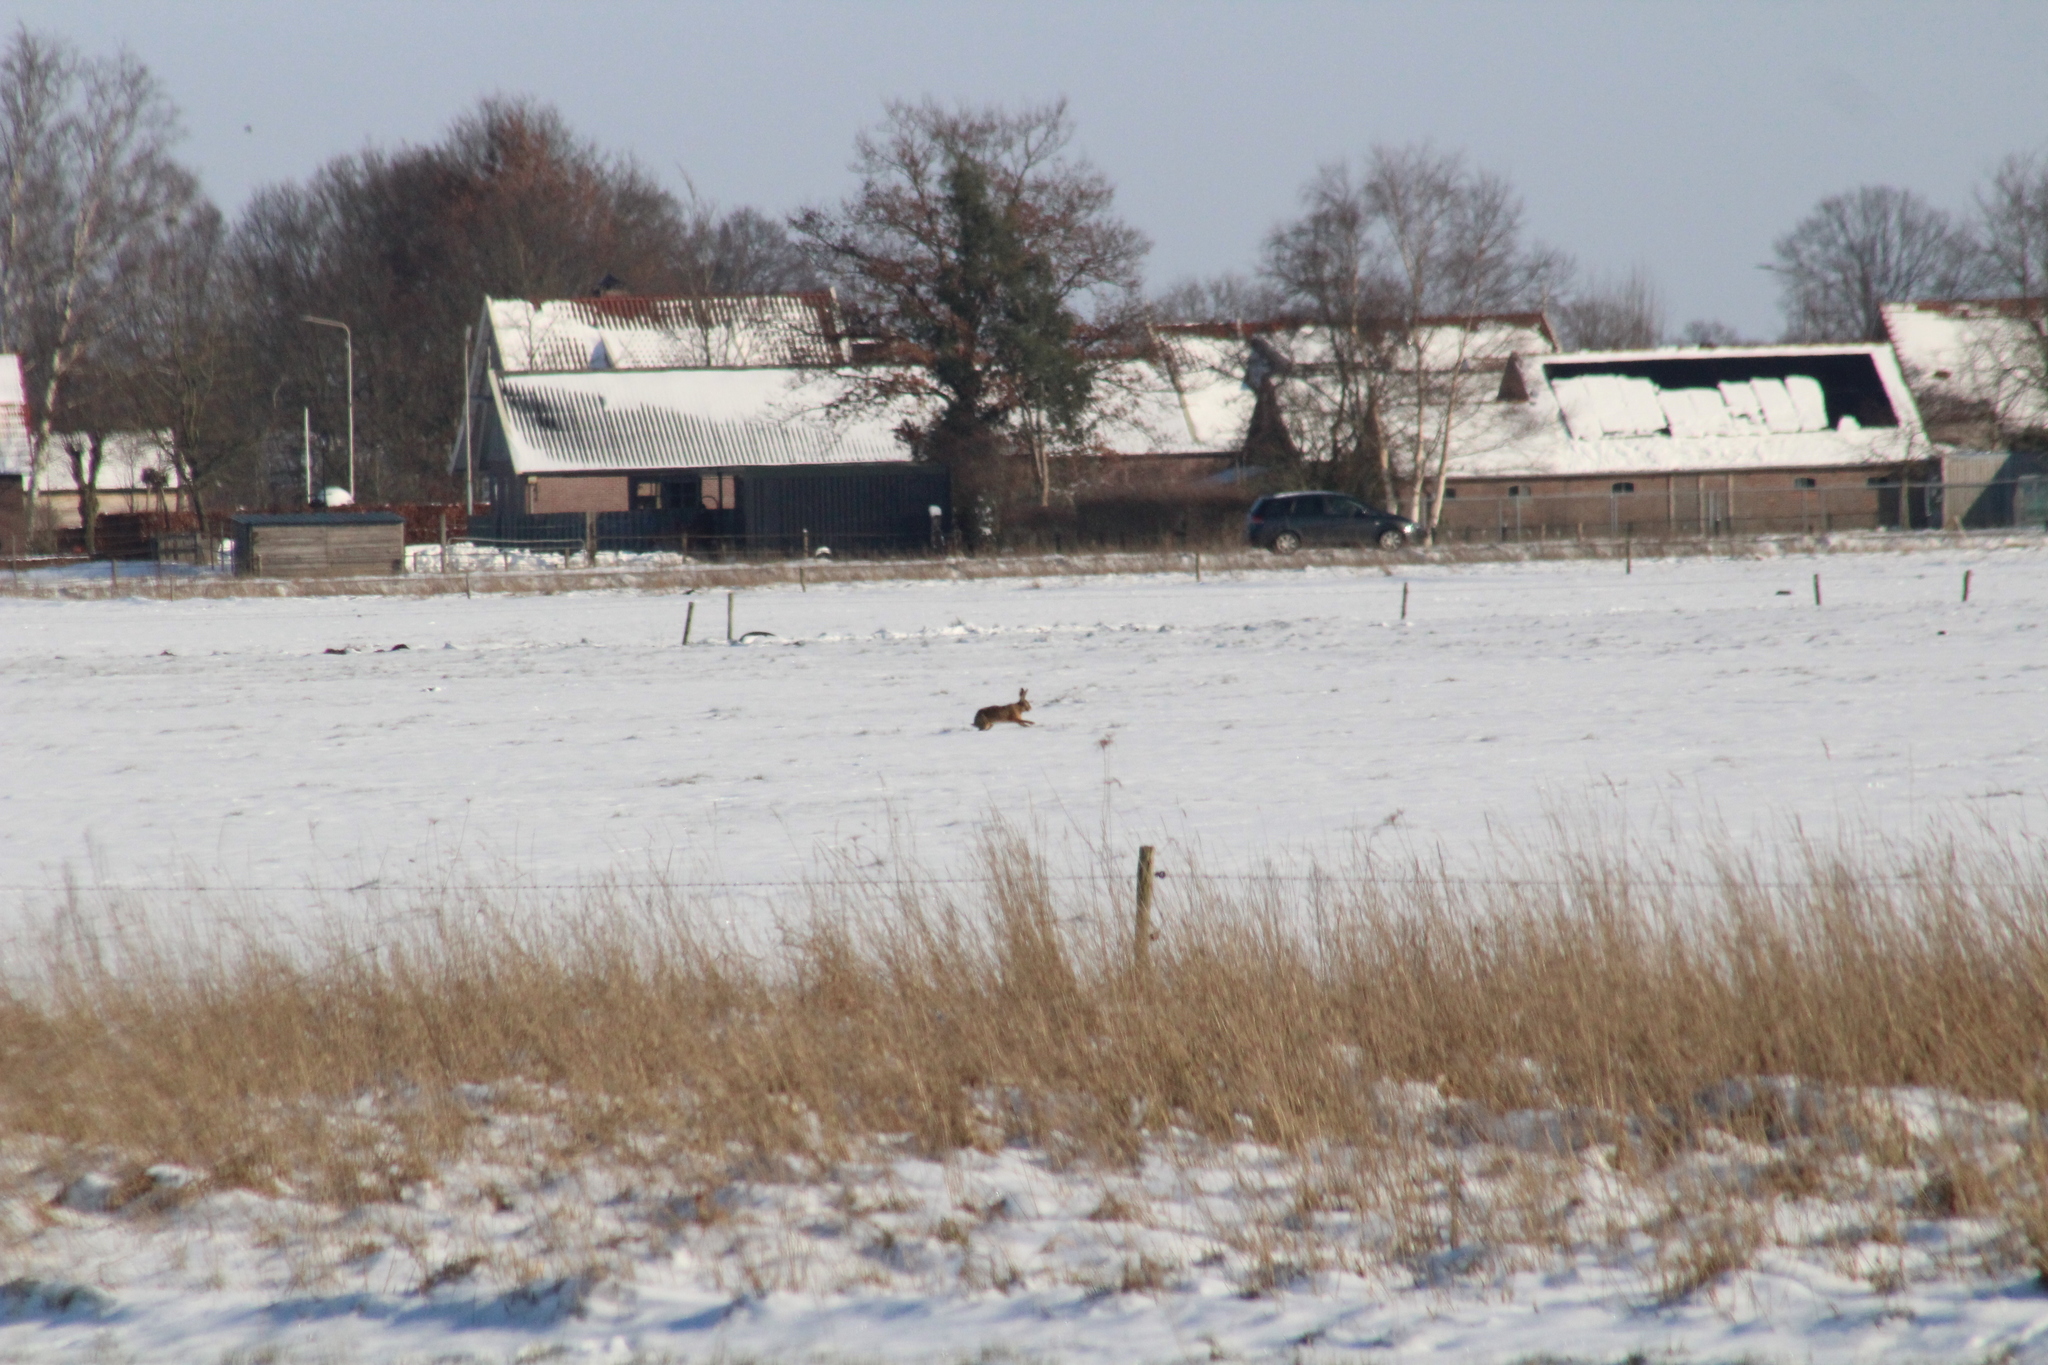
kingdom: Animalia
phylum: Chordata
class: Mammalia
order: Lagomorpha
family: Leporidae
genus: Lepus
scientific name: Lepus europaeus
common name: European hare
